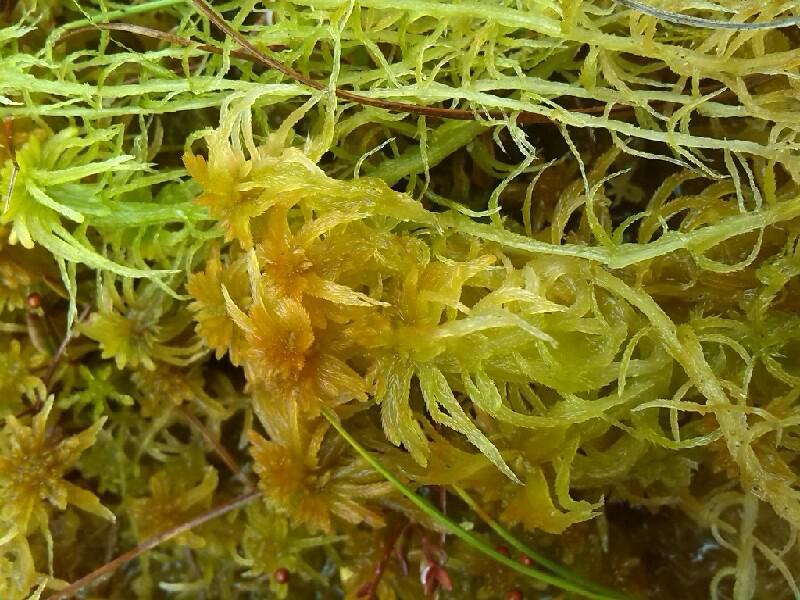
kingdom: Plantae
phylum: Bryophyta
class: Sphagnopsida
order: Sphagnales
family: Sphagnaceae
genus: Sphagnum
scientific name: Sphagnum fallax
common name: Flat-top peat moss
